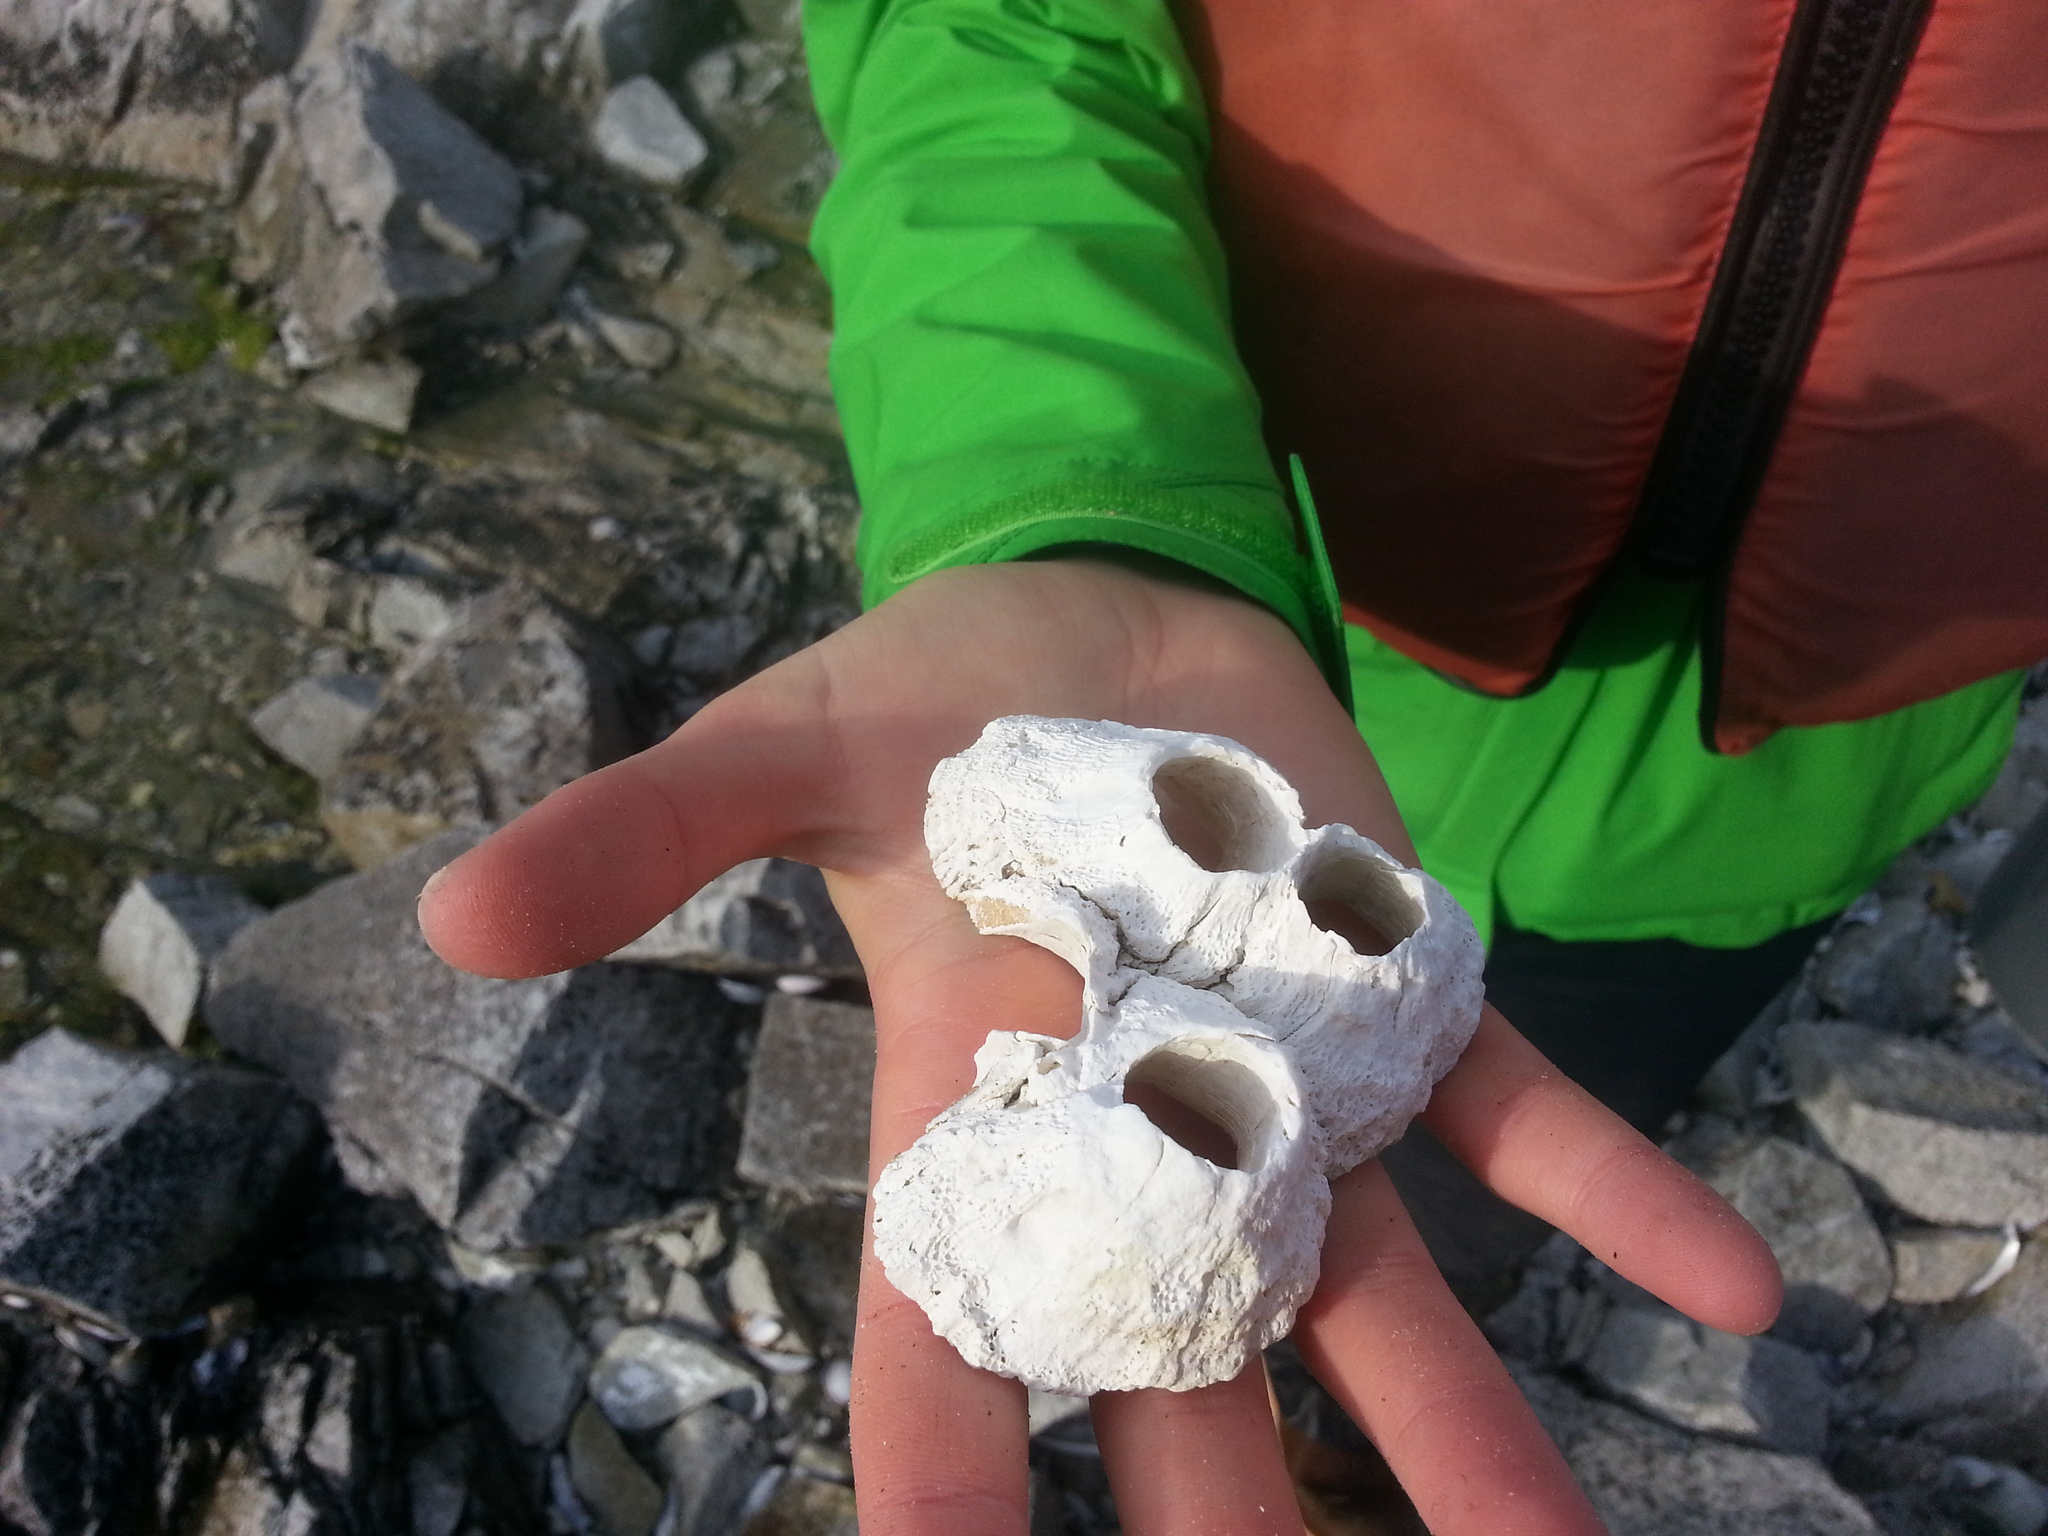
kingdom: Animalia
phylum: Arthropoda
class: Maxillopoda
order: Sessilia
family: Balanidae
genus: Balanus
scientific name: Balanus nubilus
